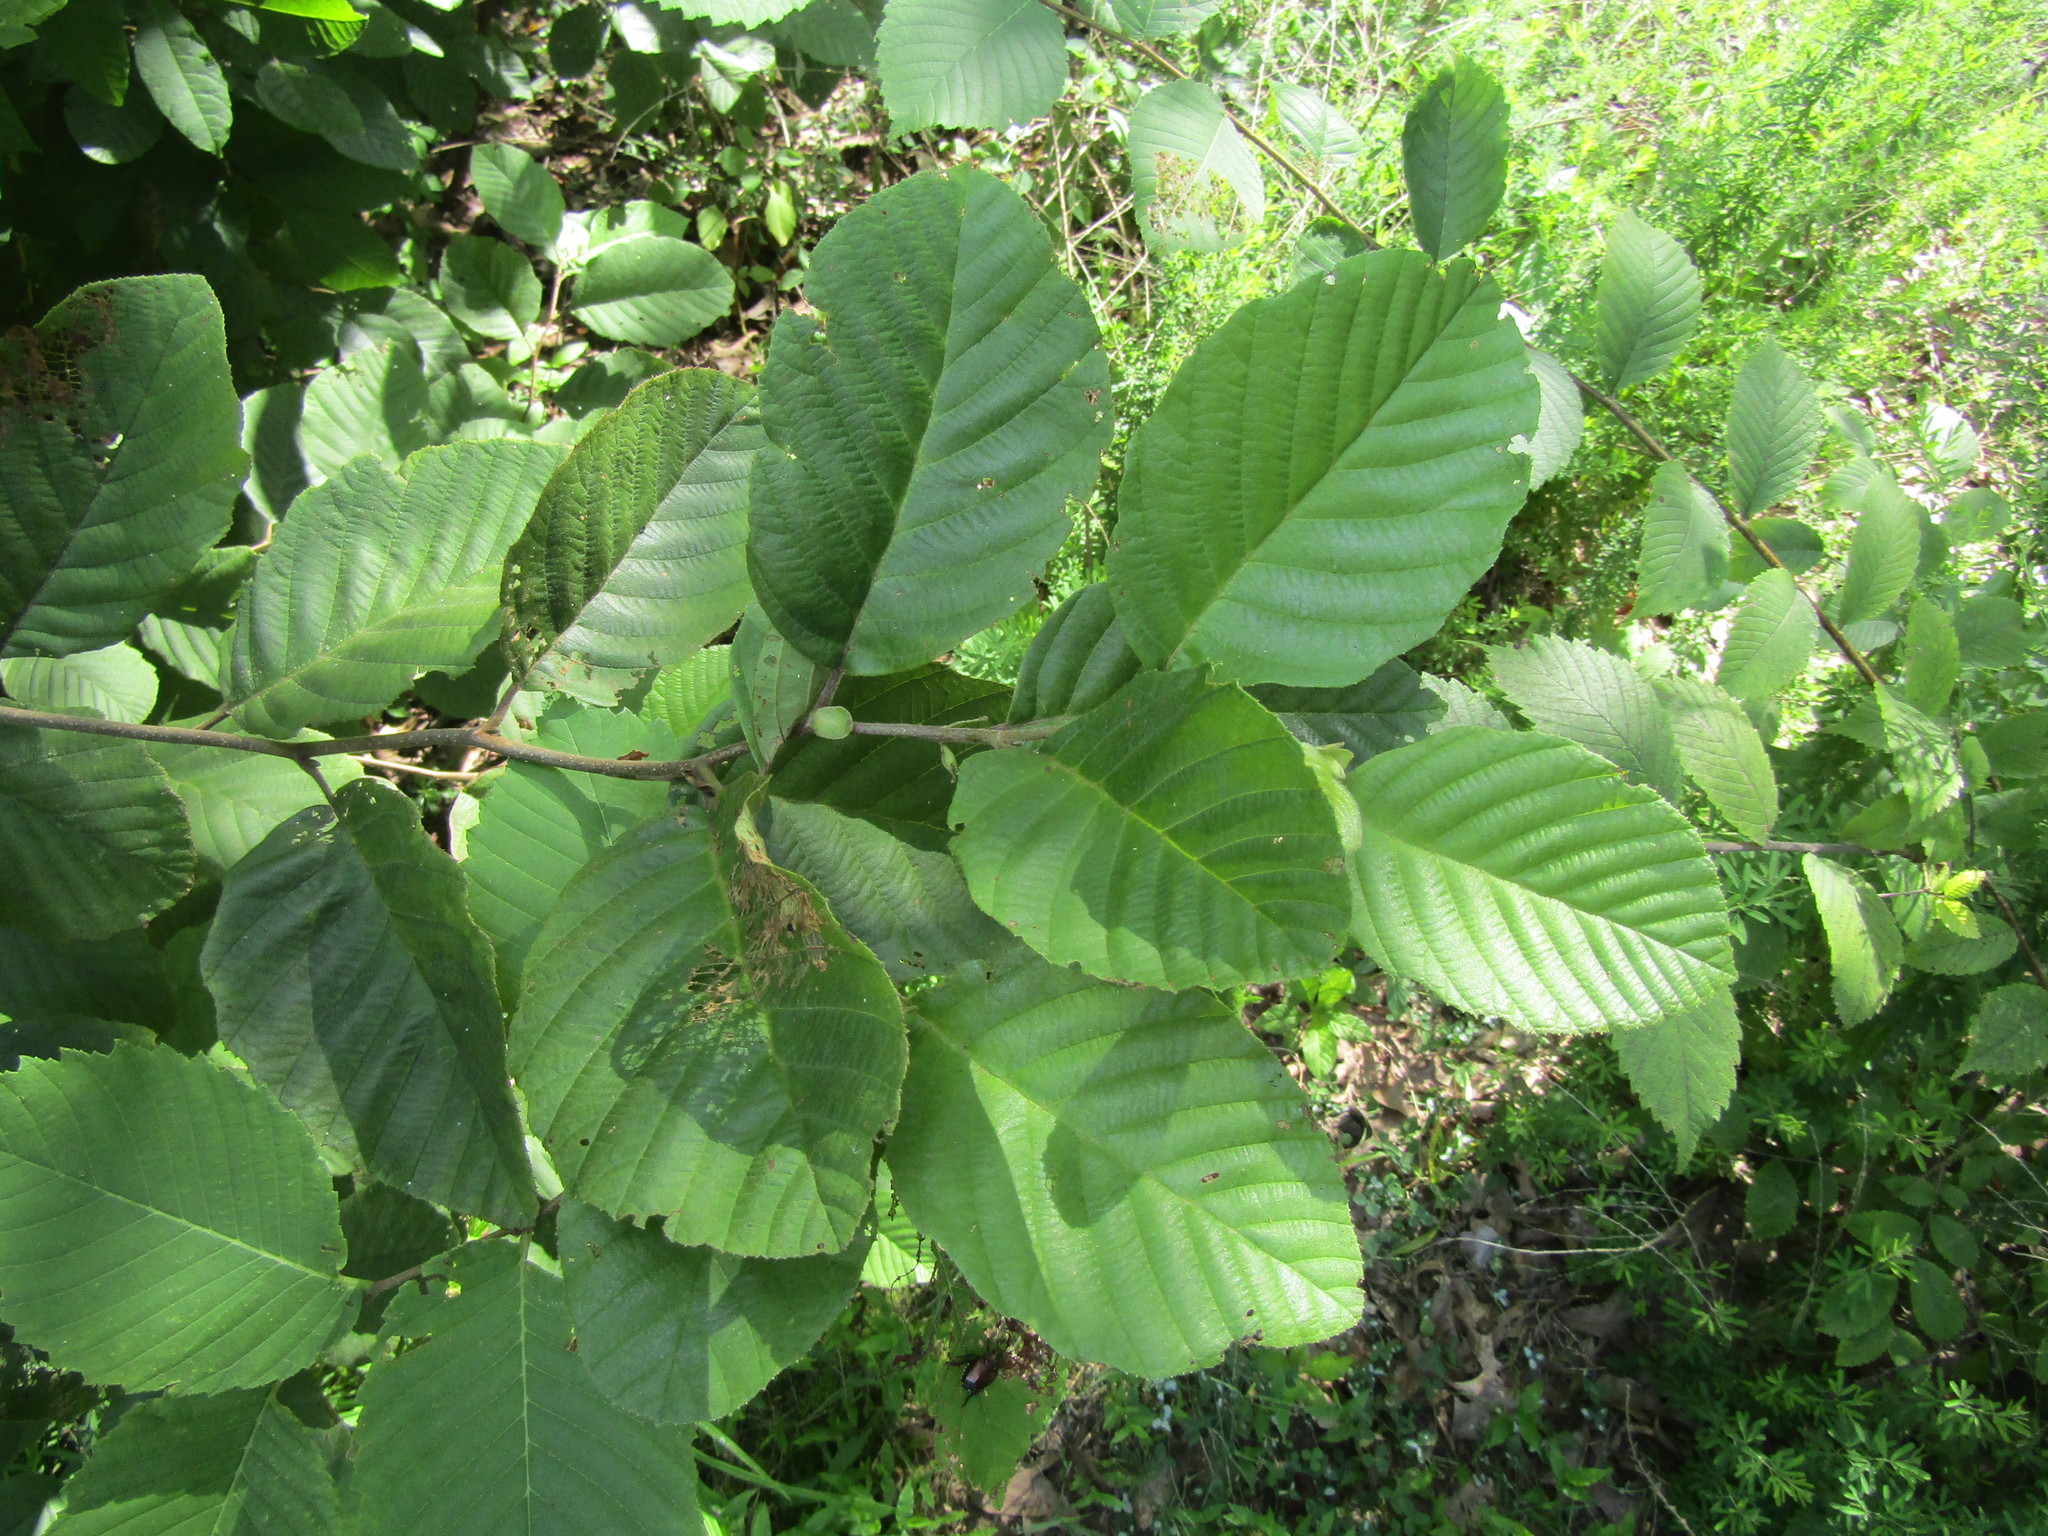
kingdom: Plantae
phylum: Tracheophyta
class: Magnoliopsida
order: Fagales
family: Betulaceae
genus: Alnus
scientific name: Alnus serrulata
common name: Hazel alder
